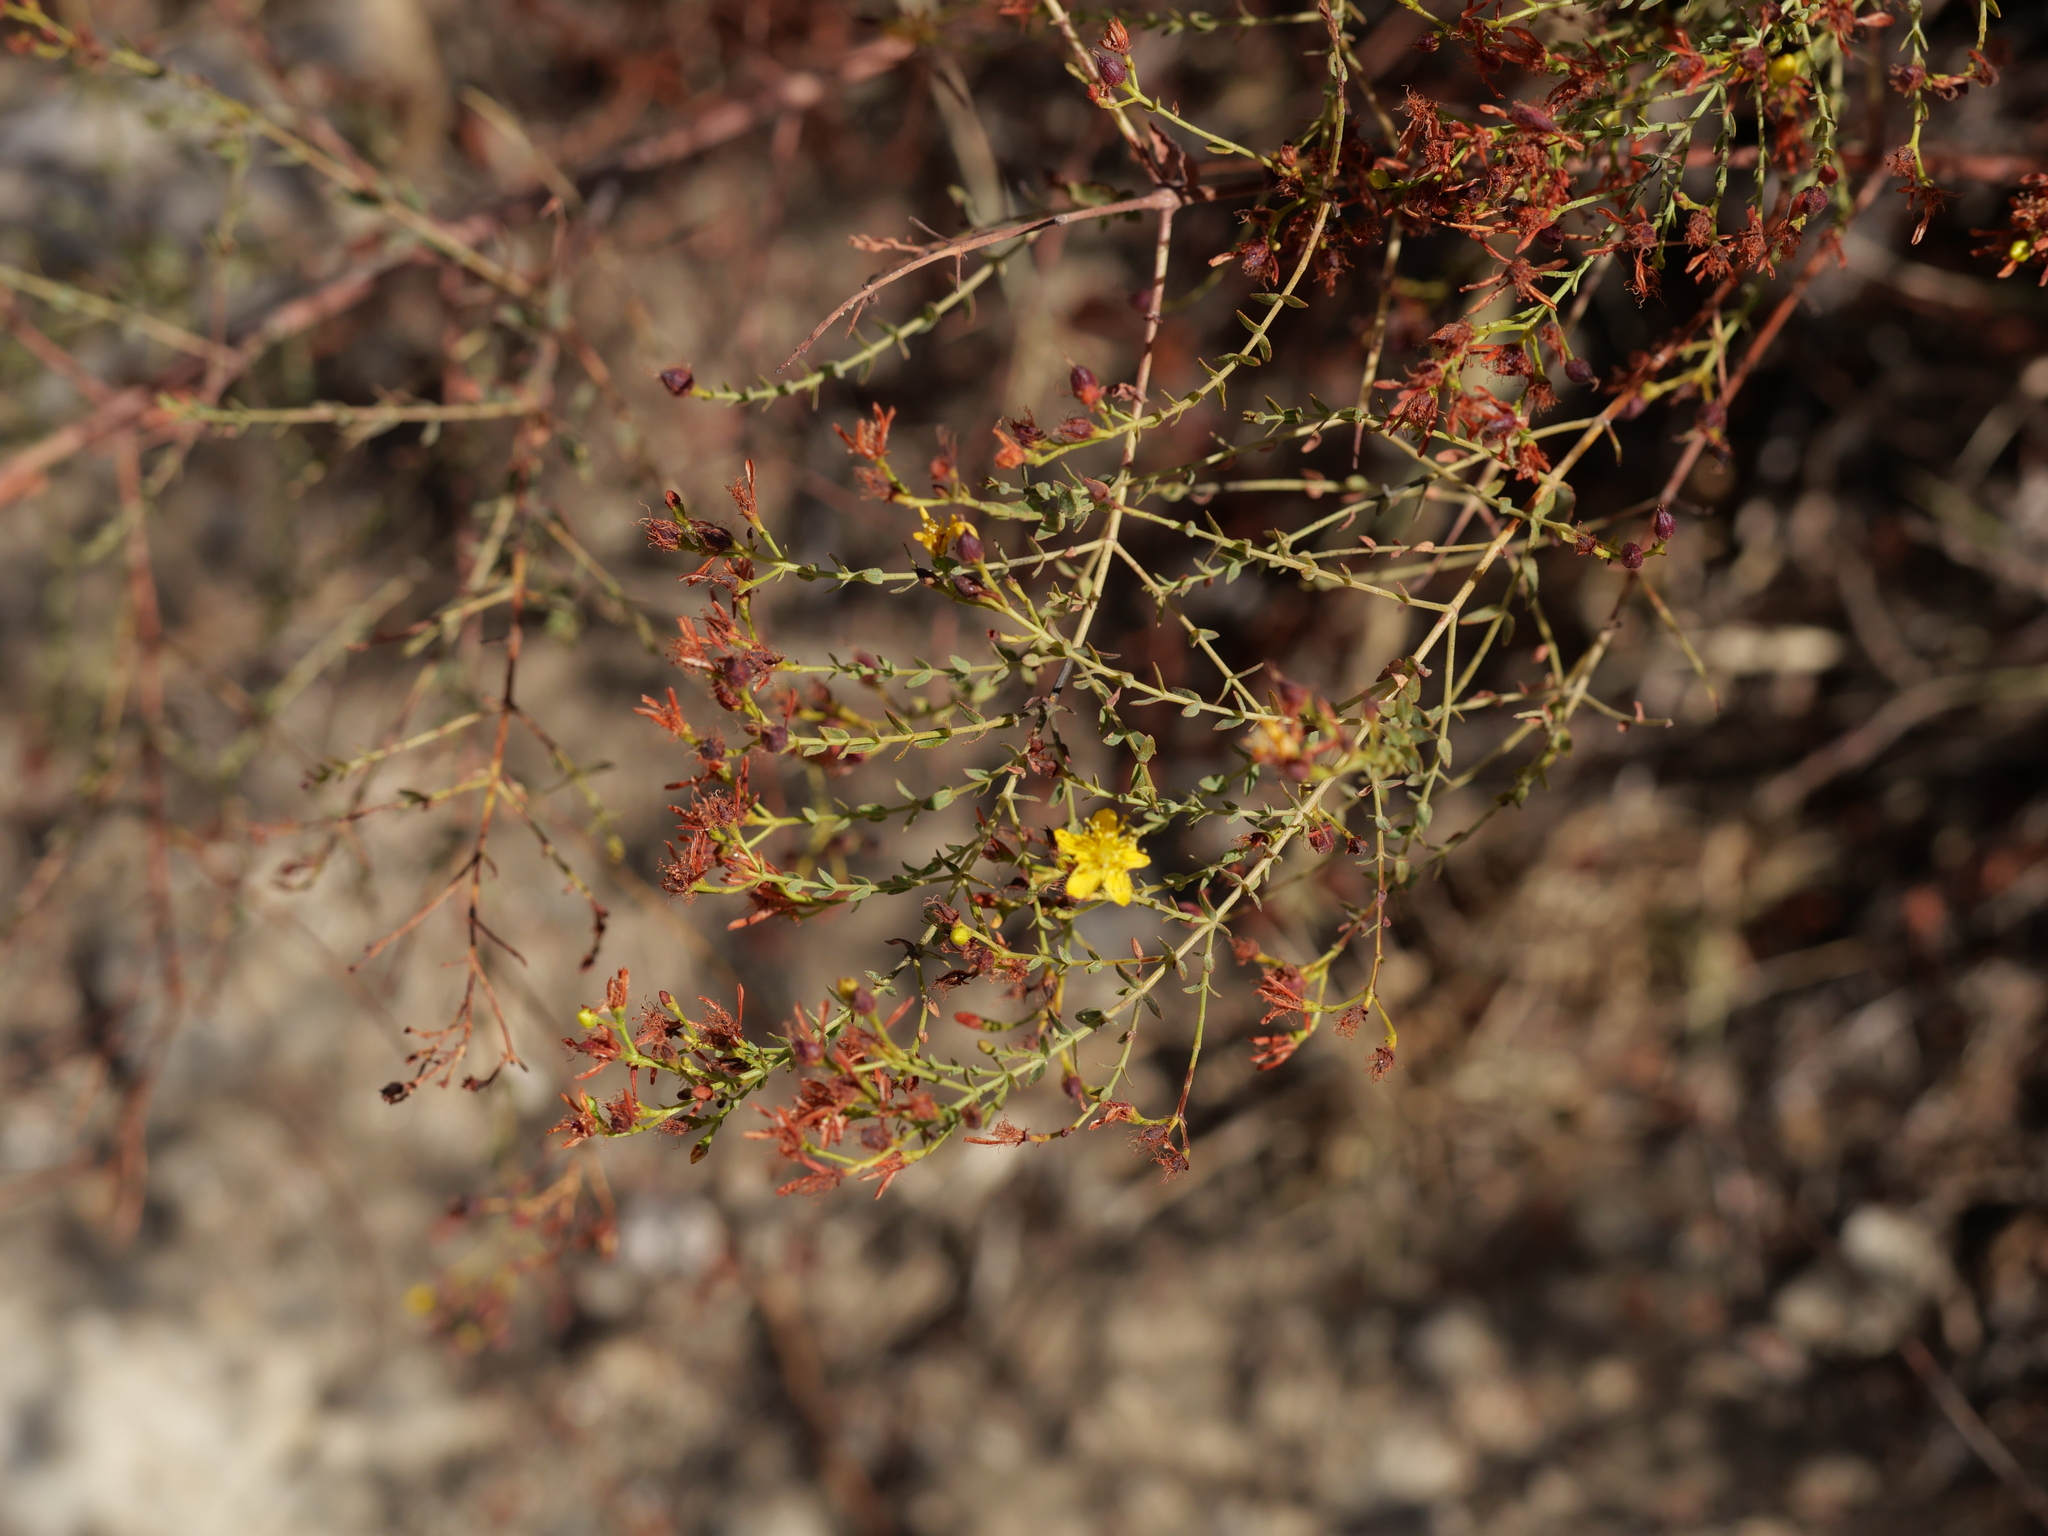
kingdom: Plantae
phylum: Tracheophyta
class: Magnoliopsida
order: Malpighiales
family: Hypericaceae
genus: Hypericum
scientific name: Hypericum triquetrifolium
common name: Tangled hypericum
